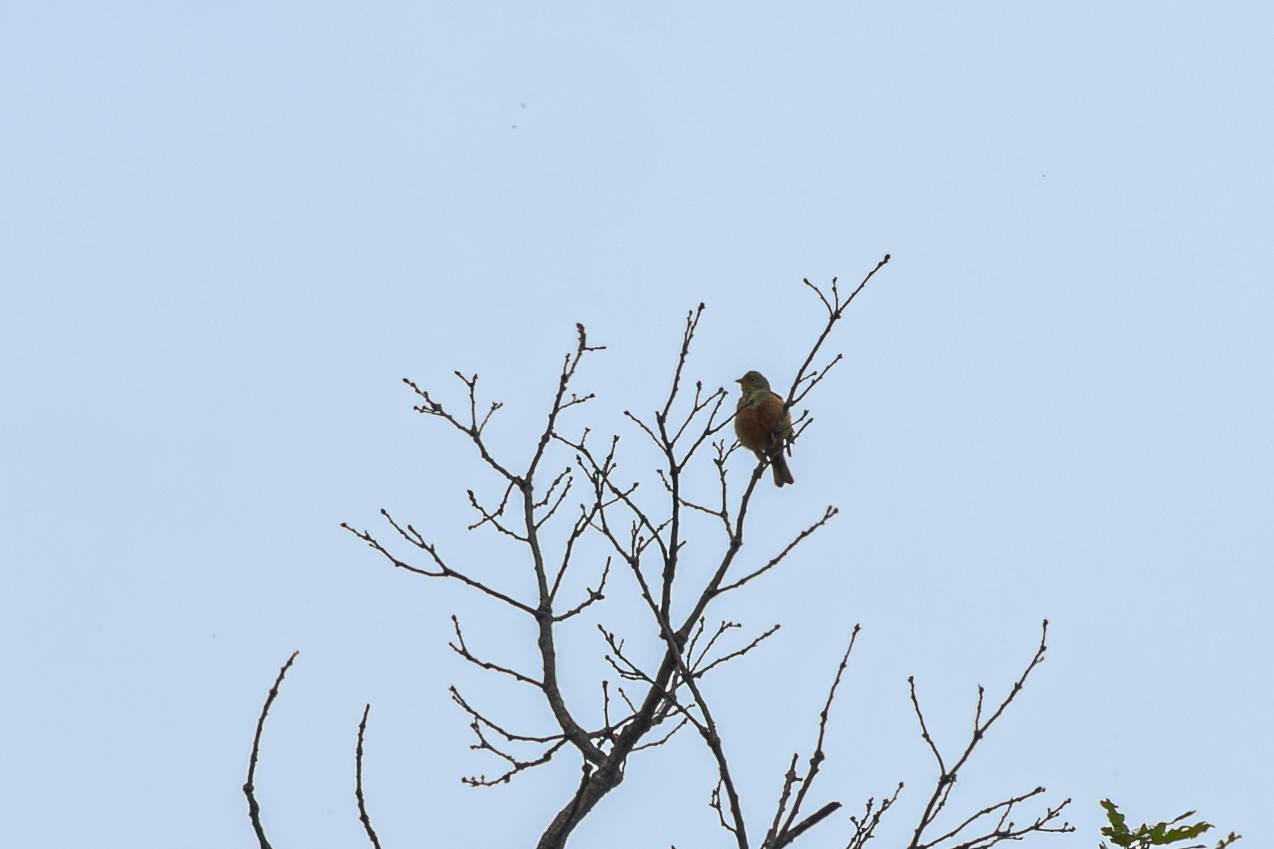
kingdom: Animalia
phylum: Chordata
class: Aves
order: Passeriformes
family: Emberizidae
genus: Emberiza
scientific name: Emberiza hortulana
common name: Ortolan bunting
